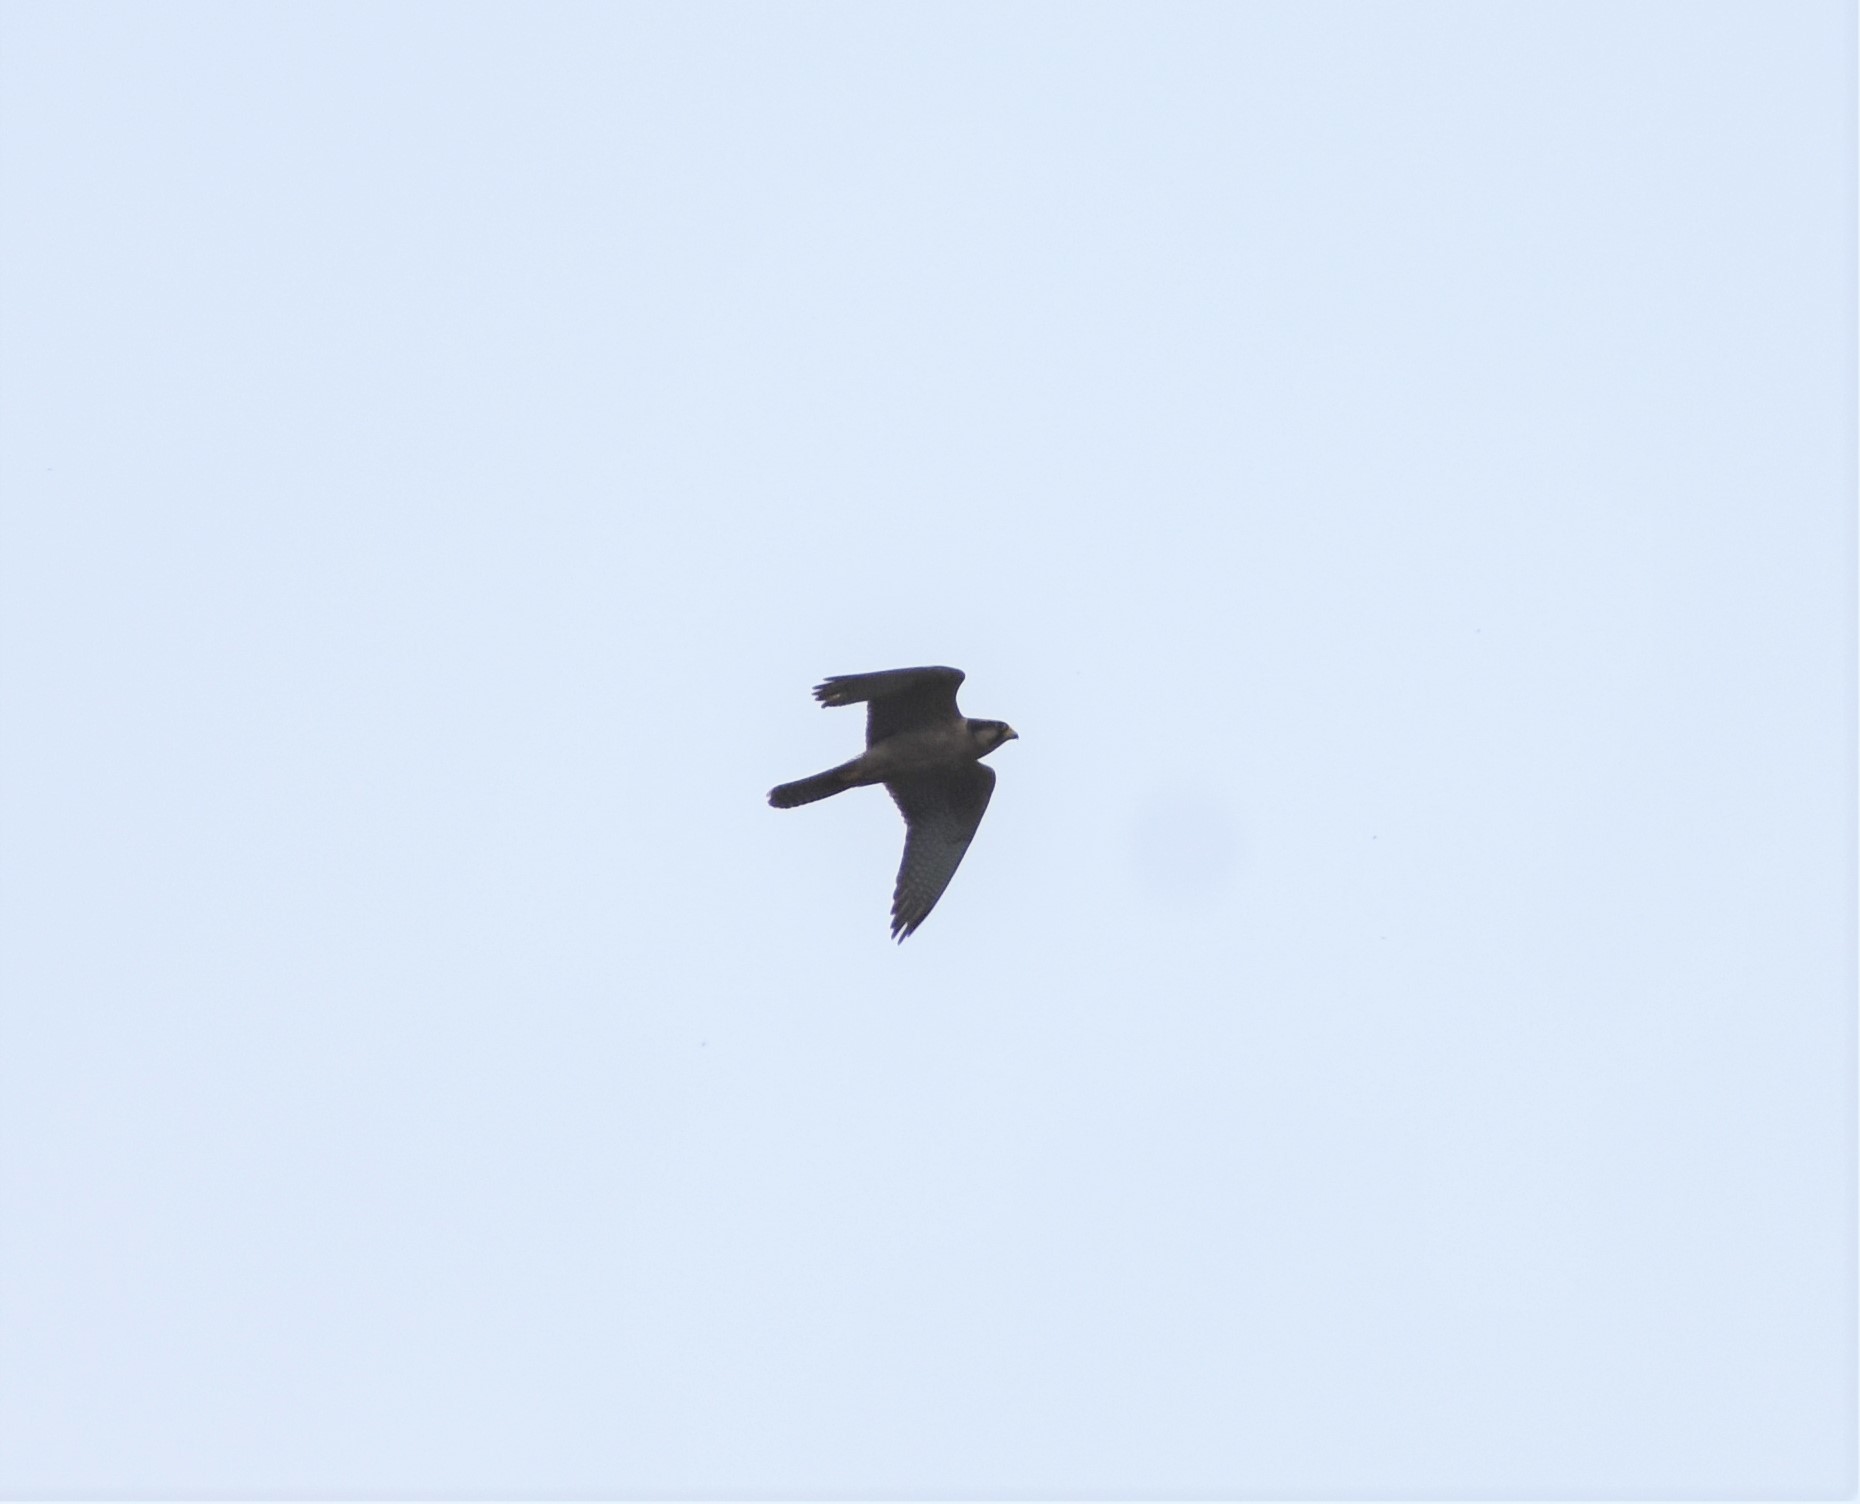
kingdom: Animalia
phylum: Chordata
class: Aves
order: Falconiformes
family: Falconidae
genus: Falco
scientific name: Falco biarmicus
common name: Lanner falcon
